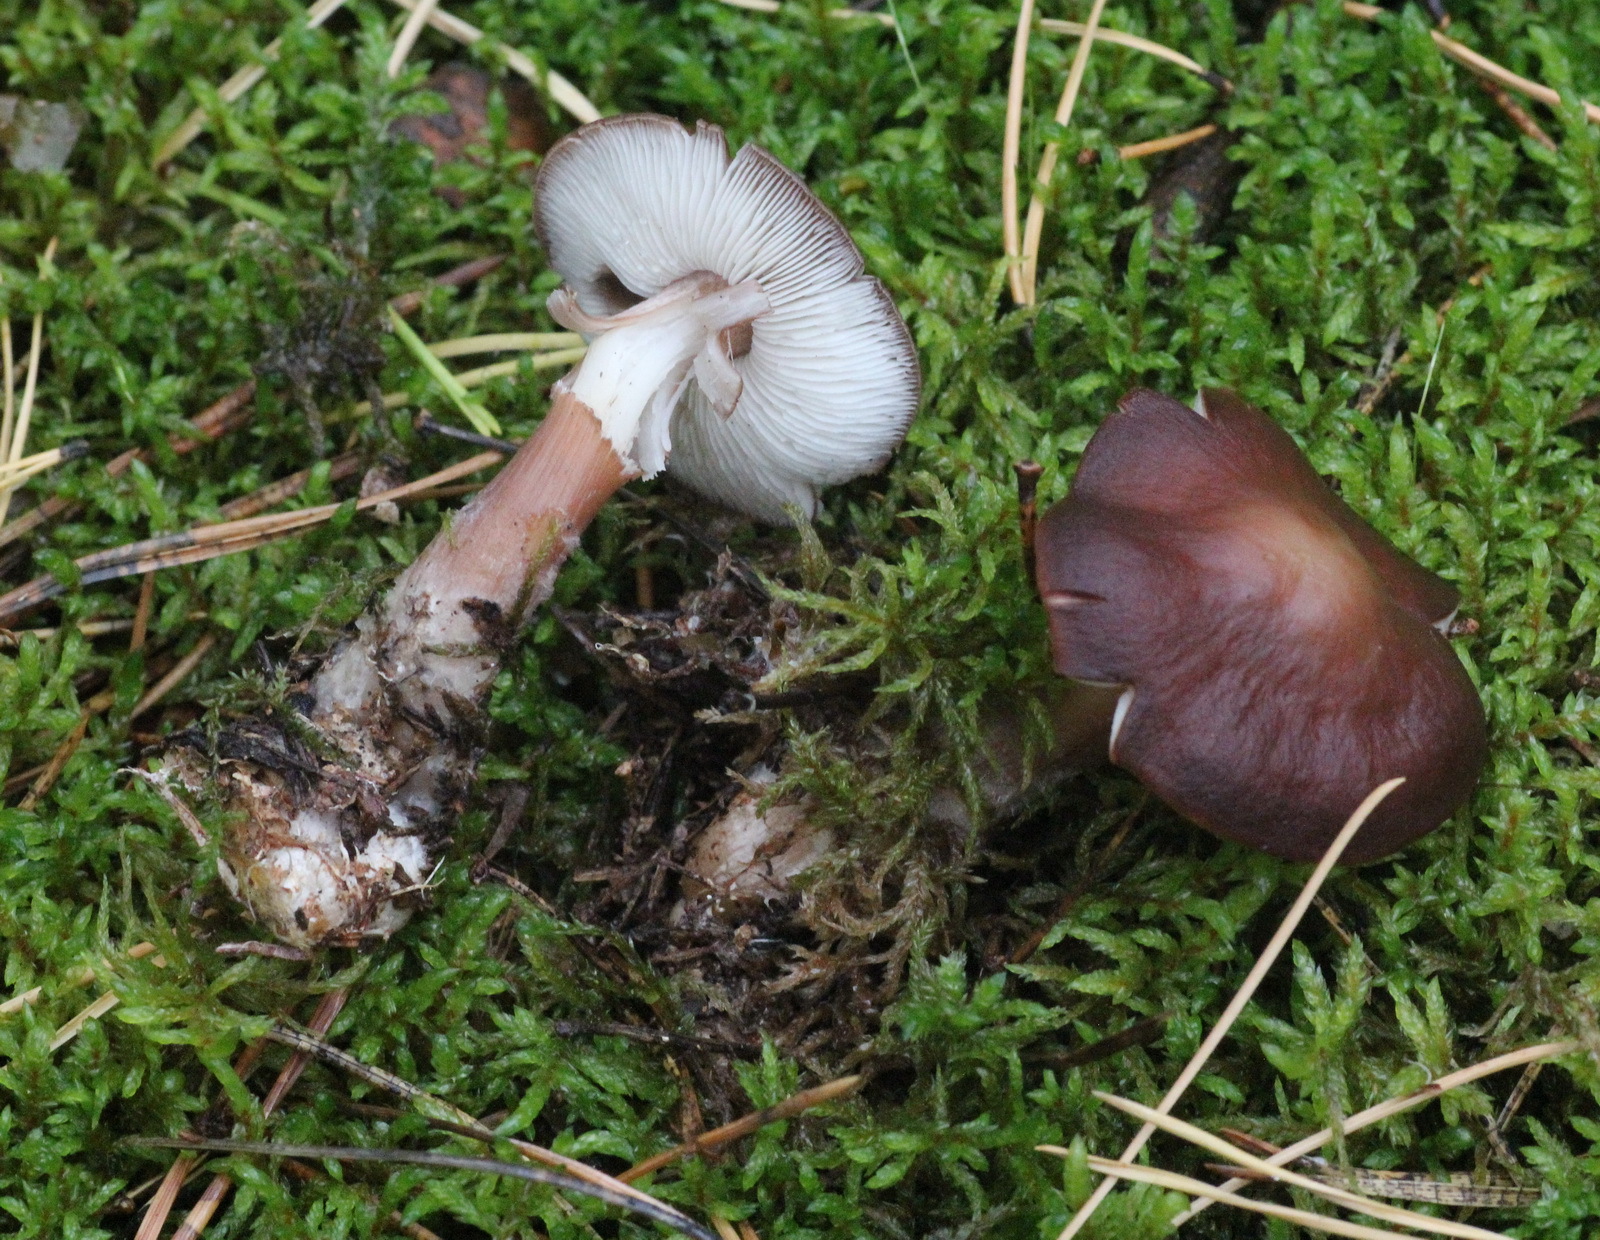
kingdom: Fungi
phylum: Basidiomycota
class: Agaricomycetes
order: Agaricales
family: Omphalotaceae
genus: Rhodocollybia
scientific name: Rhodocollybia butyracea
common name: Butter cap
